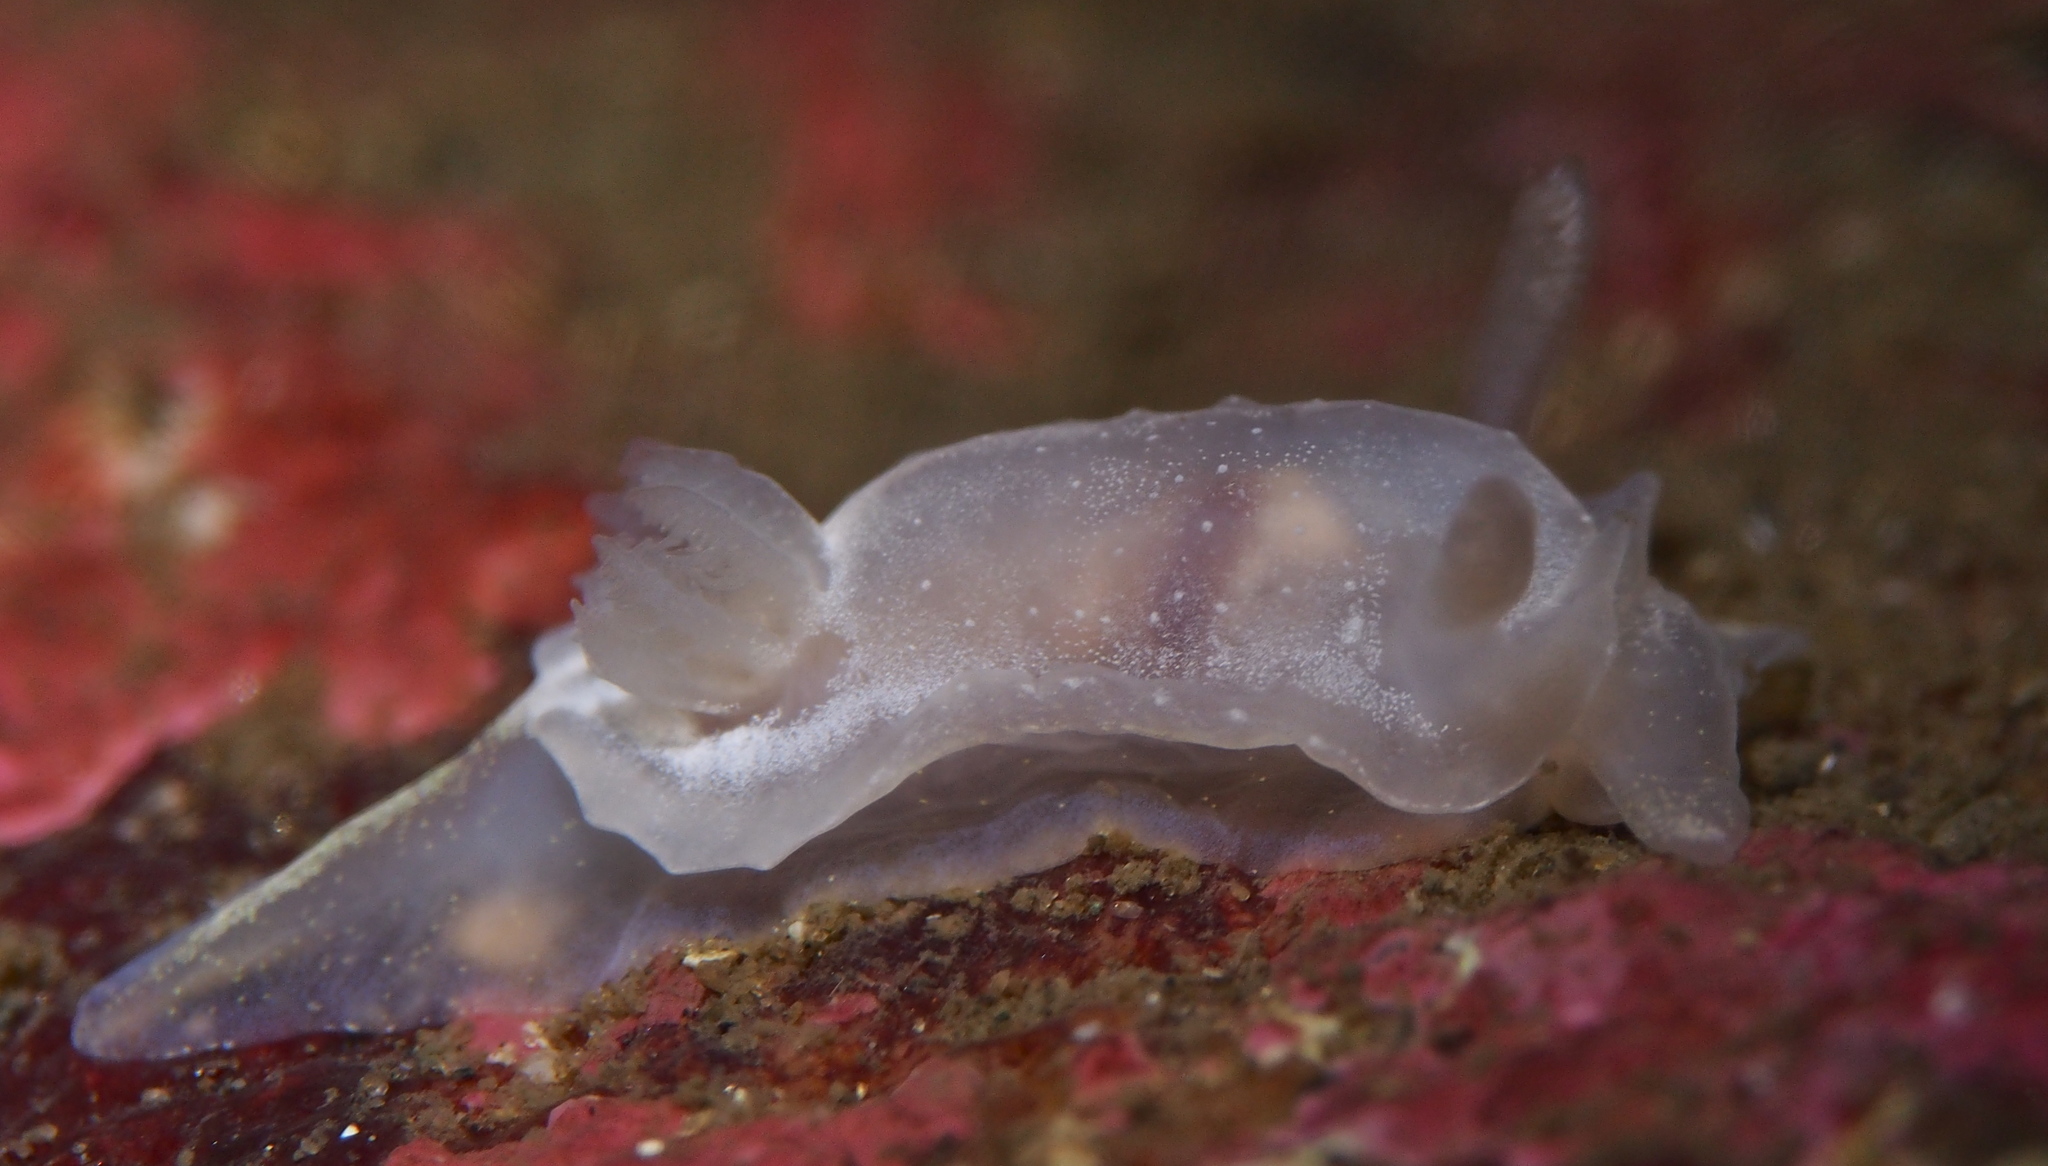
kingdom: Animalia
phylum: Mollusca
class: Gastropoda
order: Nudibranchia
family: Goniodorididae
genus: Okenia
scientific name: Okenia
